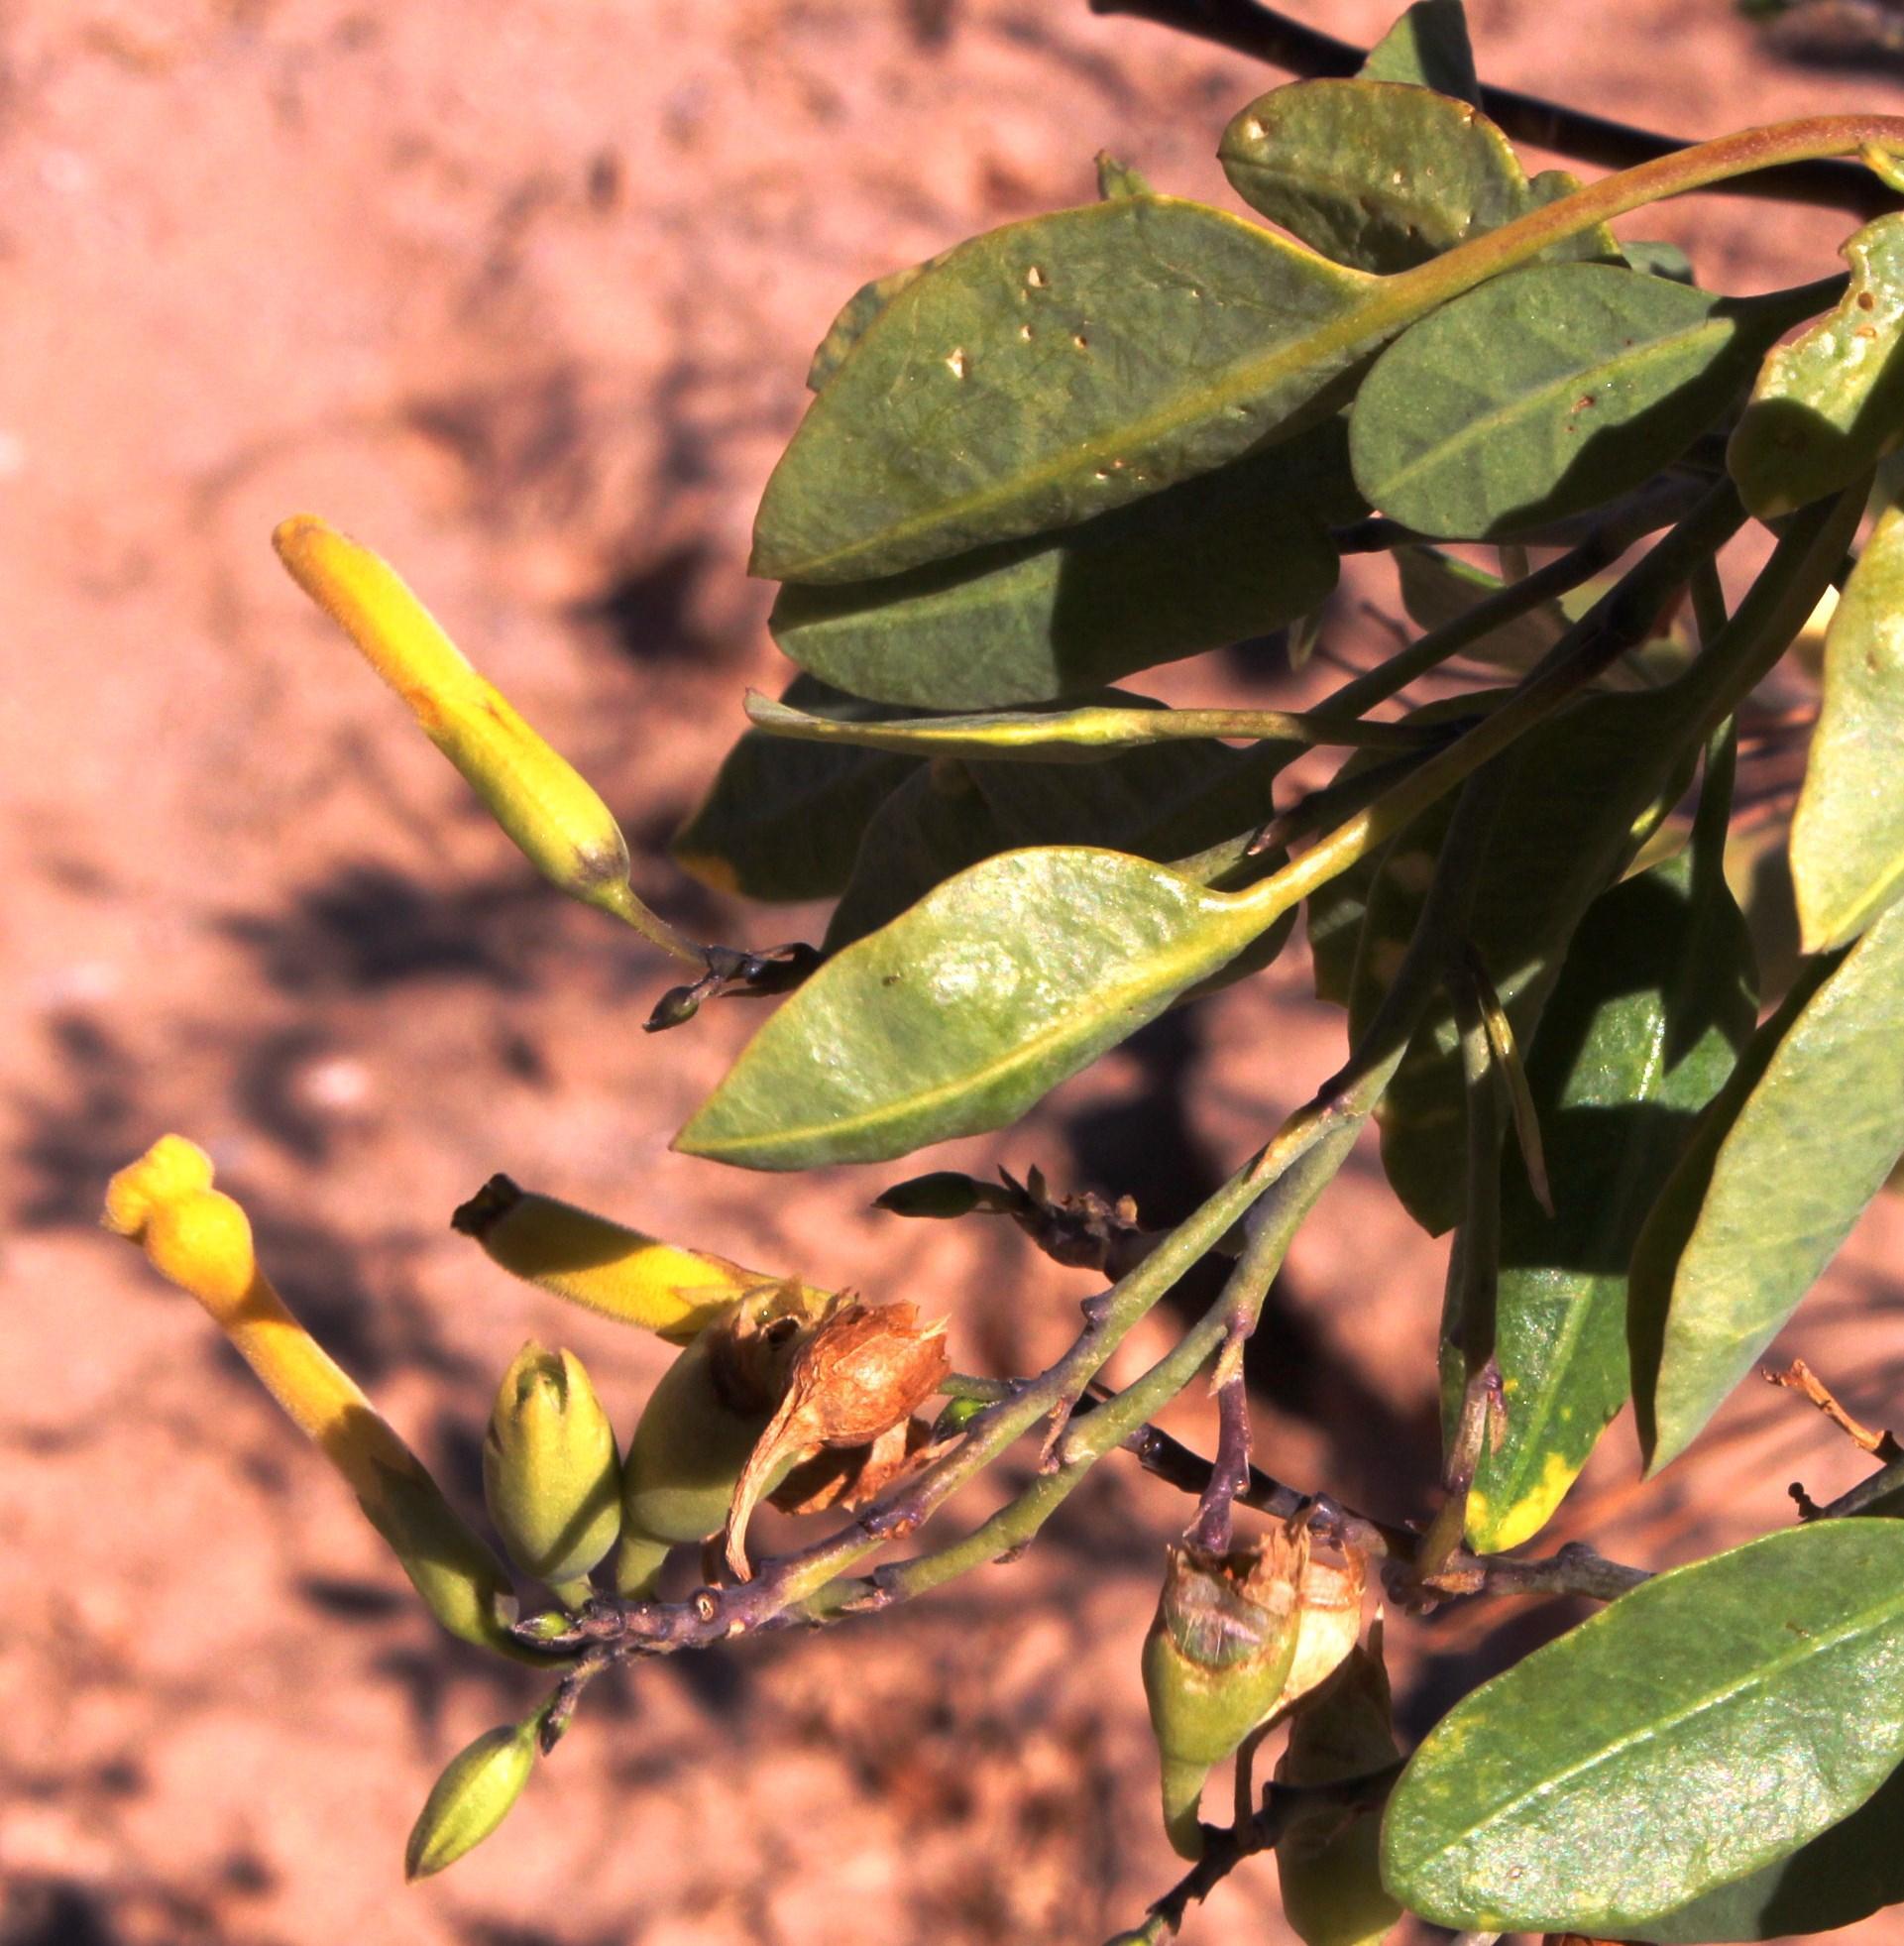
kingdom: Plantae
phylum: Tracheophyta
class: Magnoliopsida
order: Solanales
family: Solanaceae
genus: Nicotiana
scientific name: Nicotiana glauca
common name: Tree tobacco
